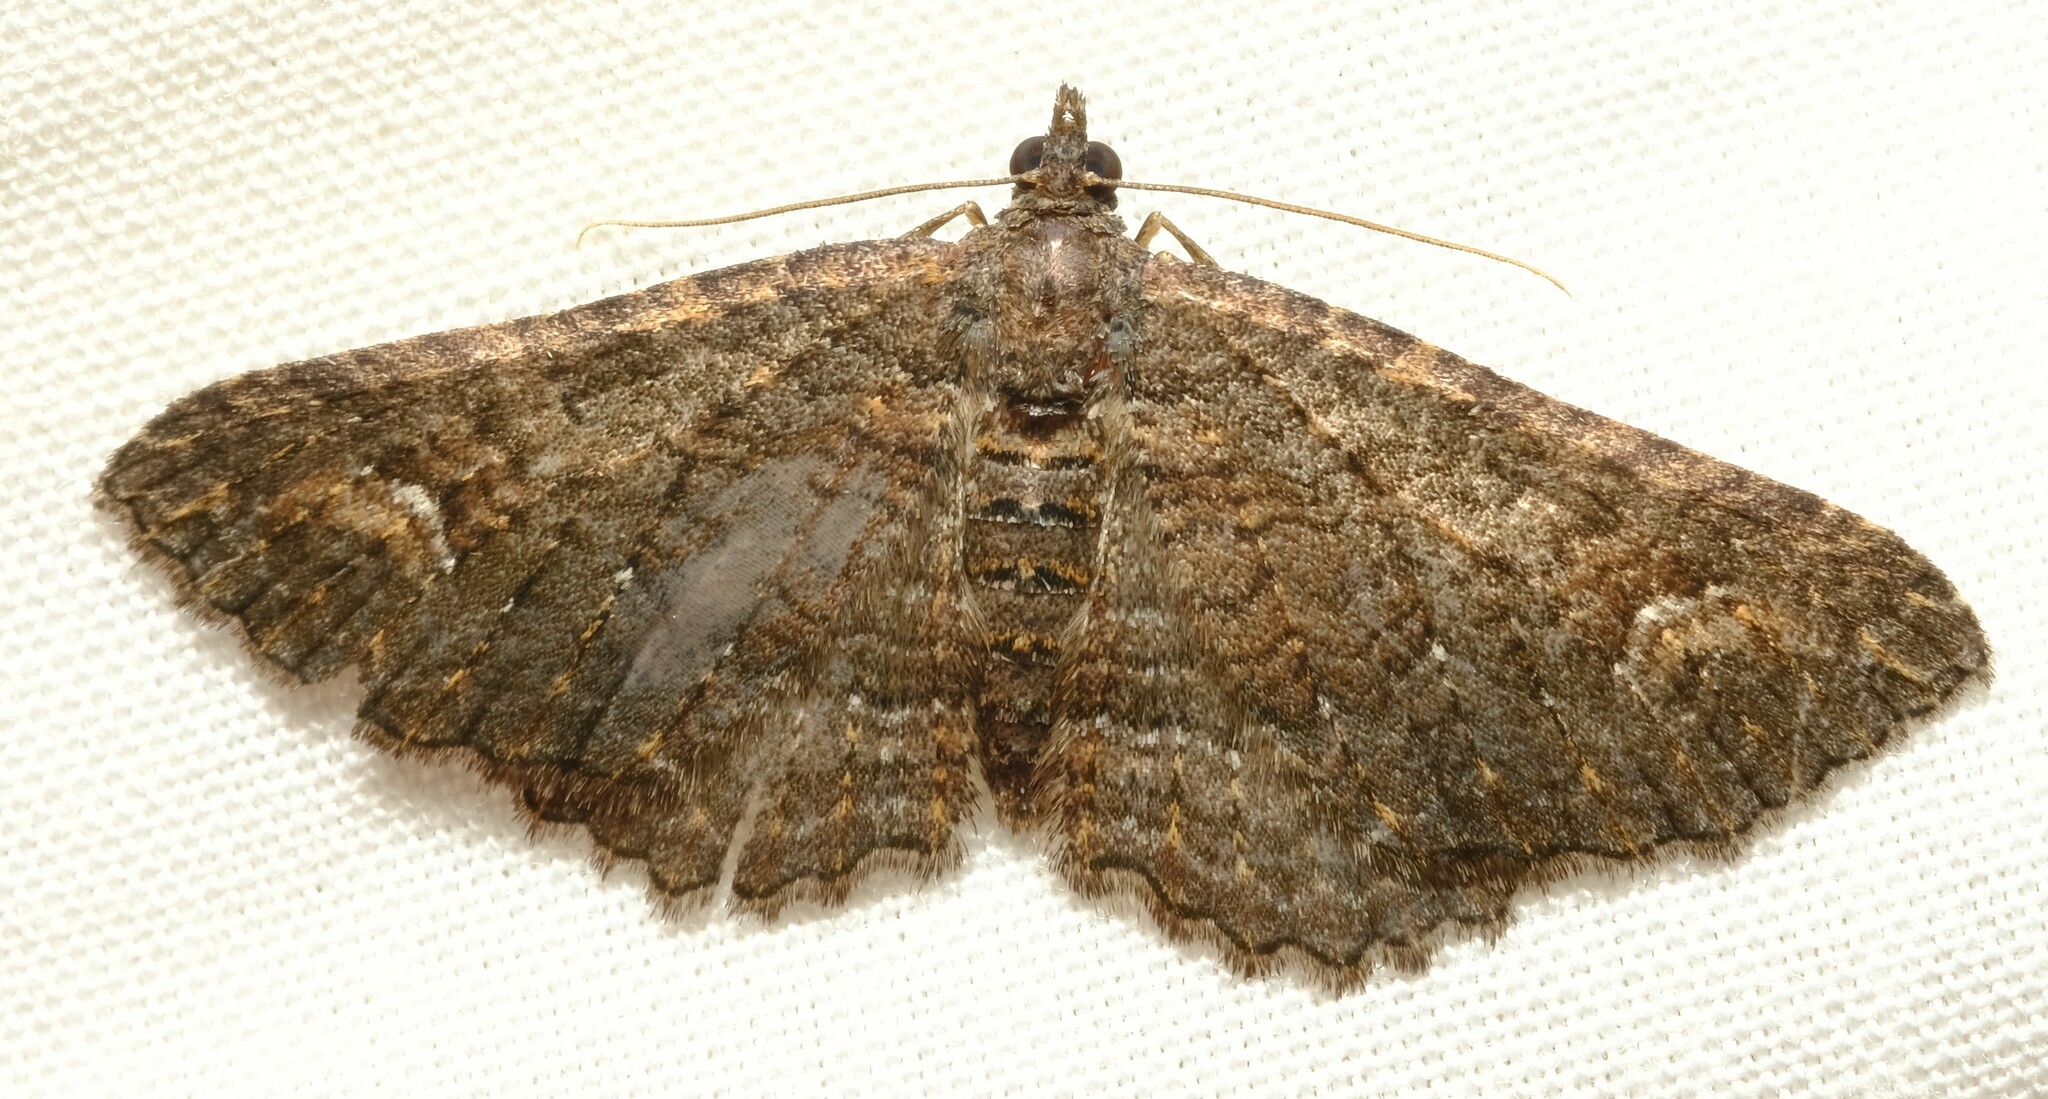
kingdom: Animalia
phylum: Arthropoda
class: Insecta
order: Lepidoptera
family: Geometridae
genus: Eupithecia
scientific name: Eupithecia Eucymatoge scotodes
